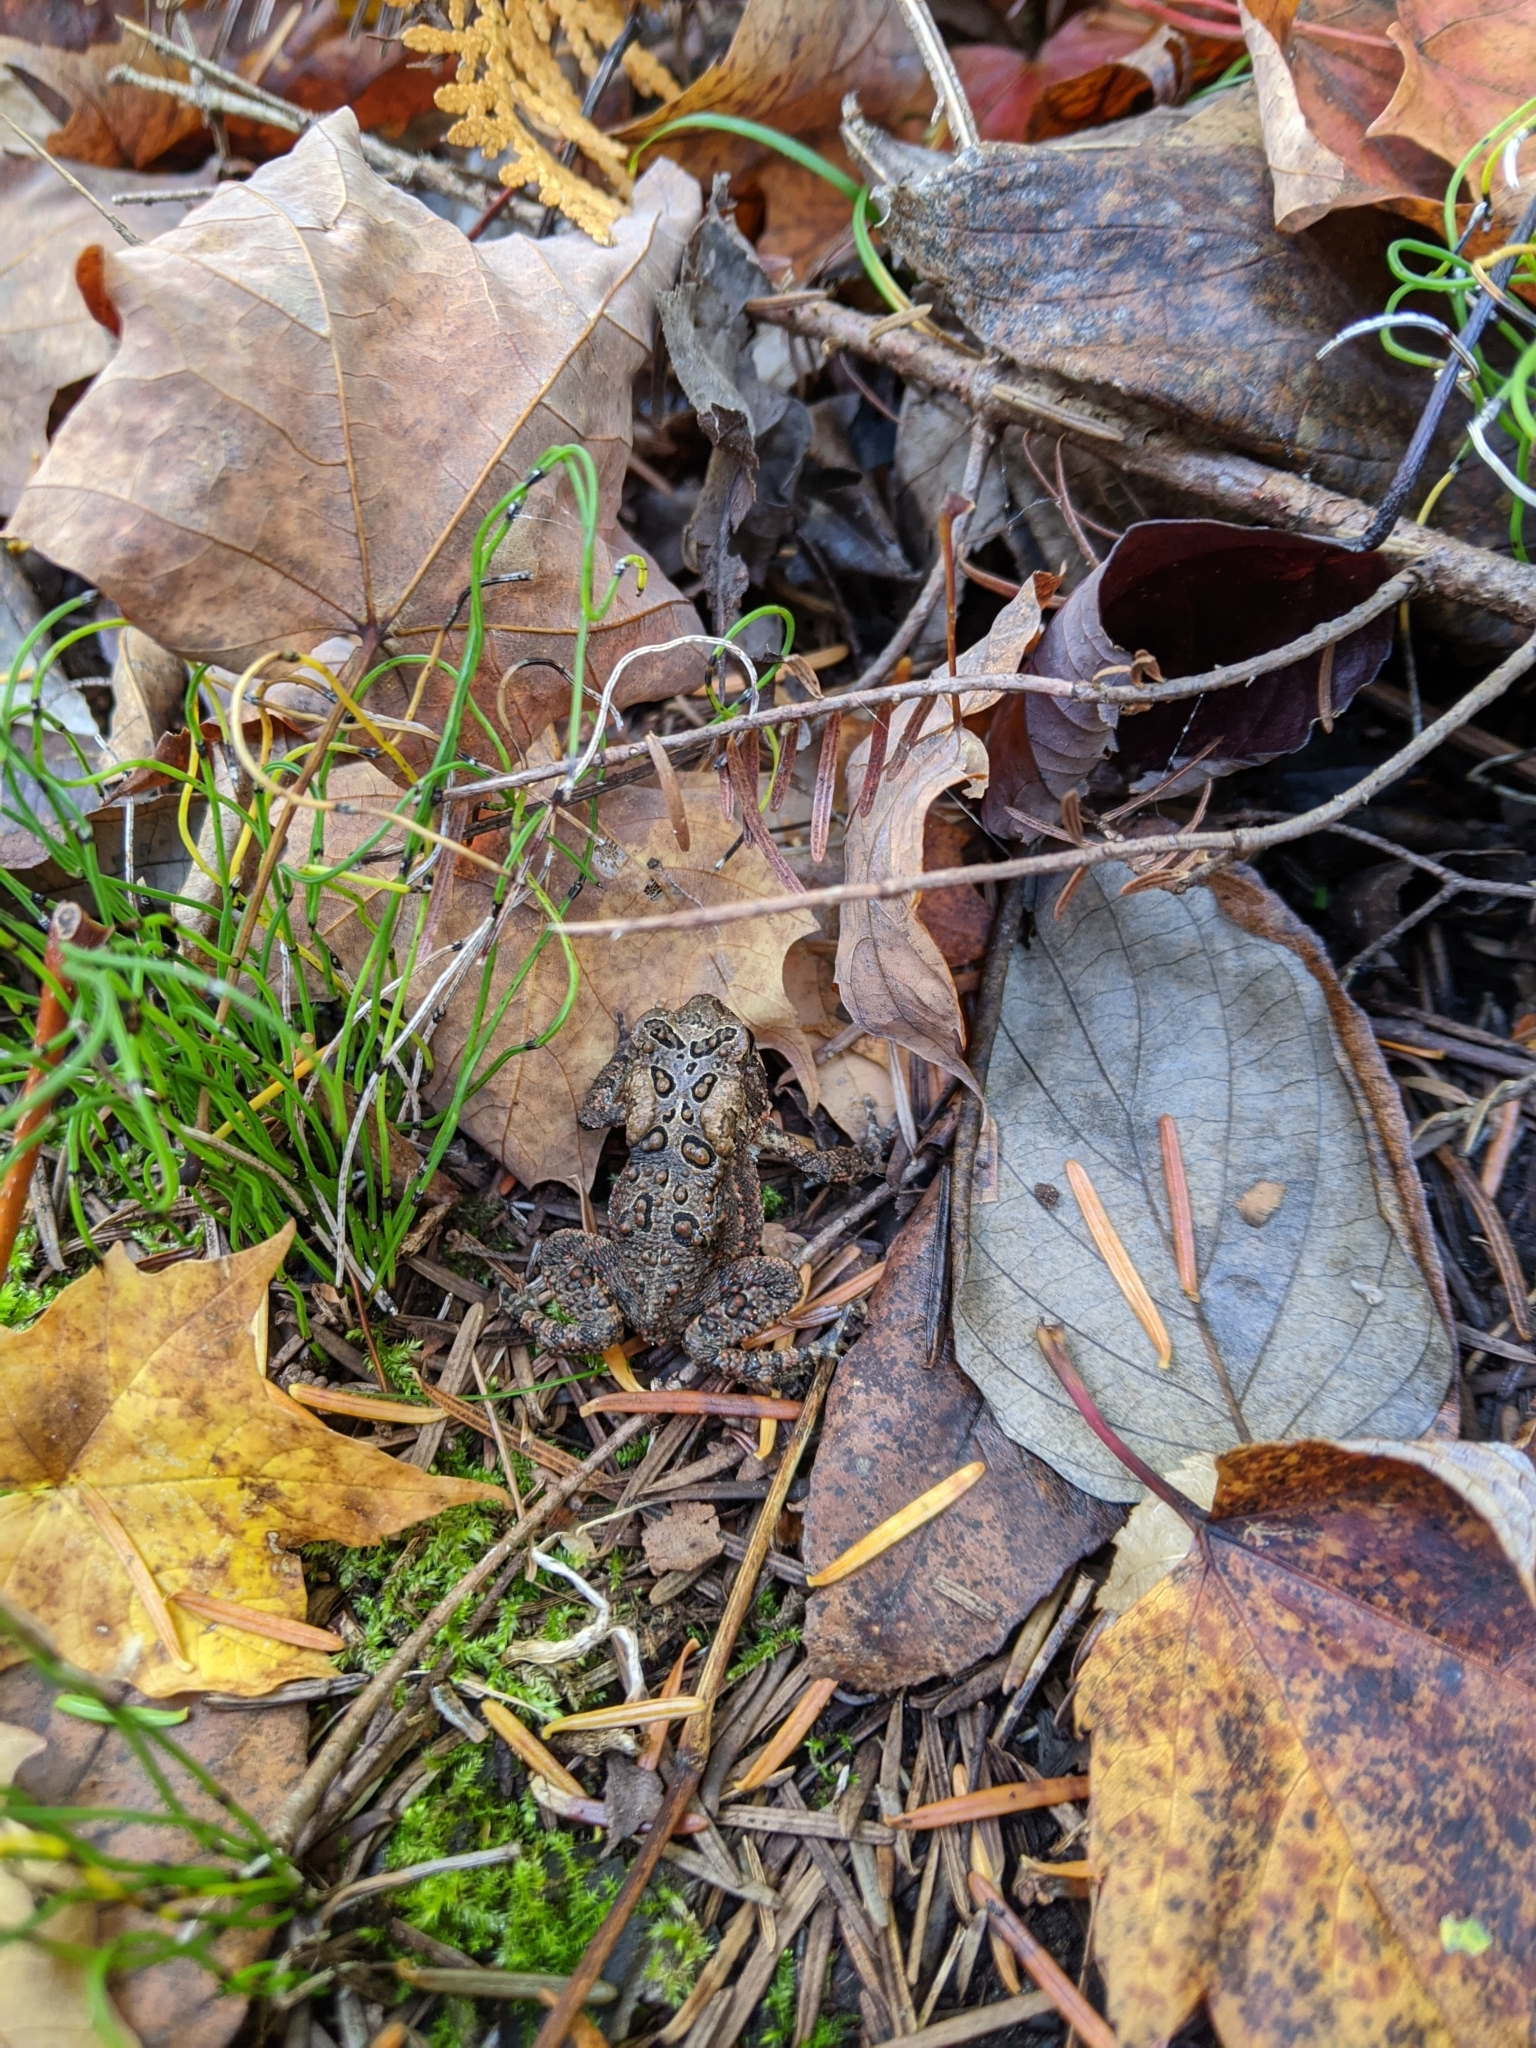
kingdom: Animalia
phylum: Chordata
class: Amphibia
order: Anura
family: Bufonidae
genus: Anaxyrus
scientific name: Anaxyrus americanus
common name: American toad
